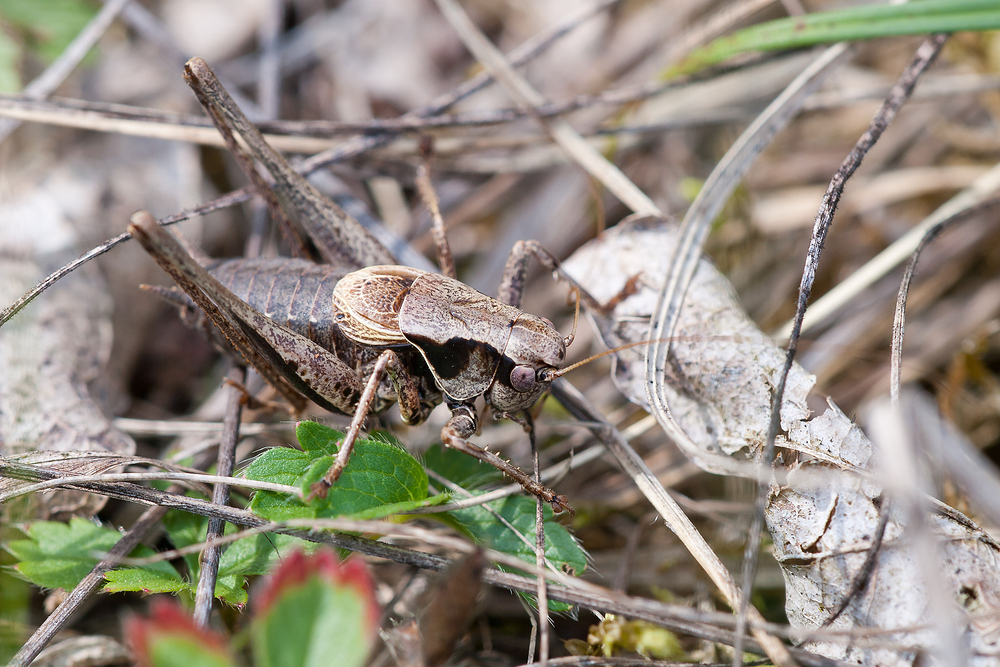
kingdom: Animalia
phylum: Arthropoda
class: Insecta
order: Orthoptera
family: Tettigoniidae
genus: Pholidoptera
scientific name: Pholidoptera griseoaptera
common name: Dark bush-cricket
